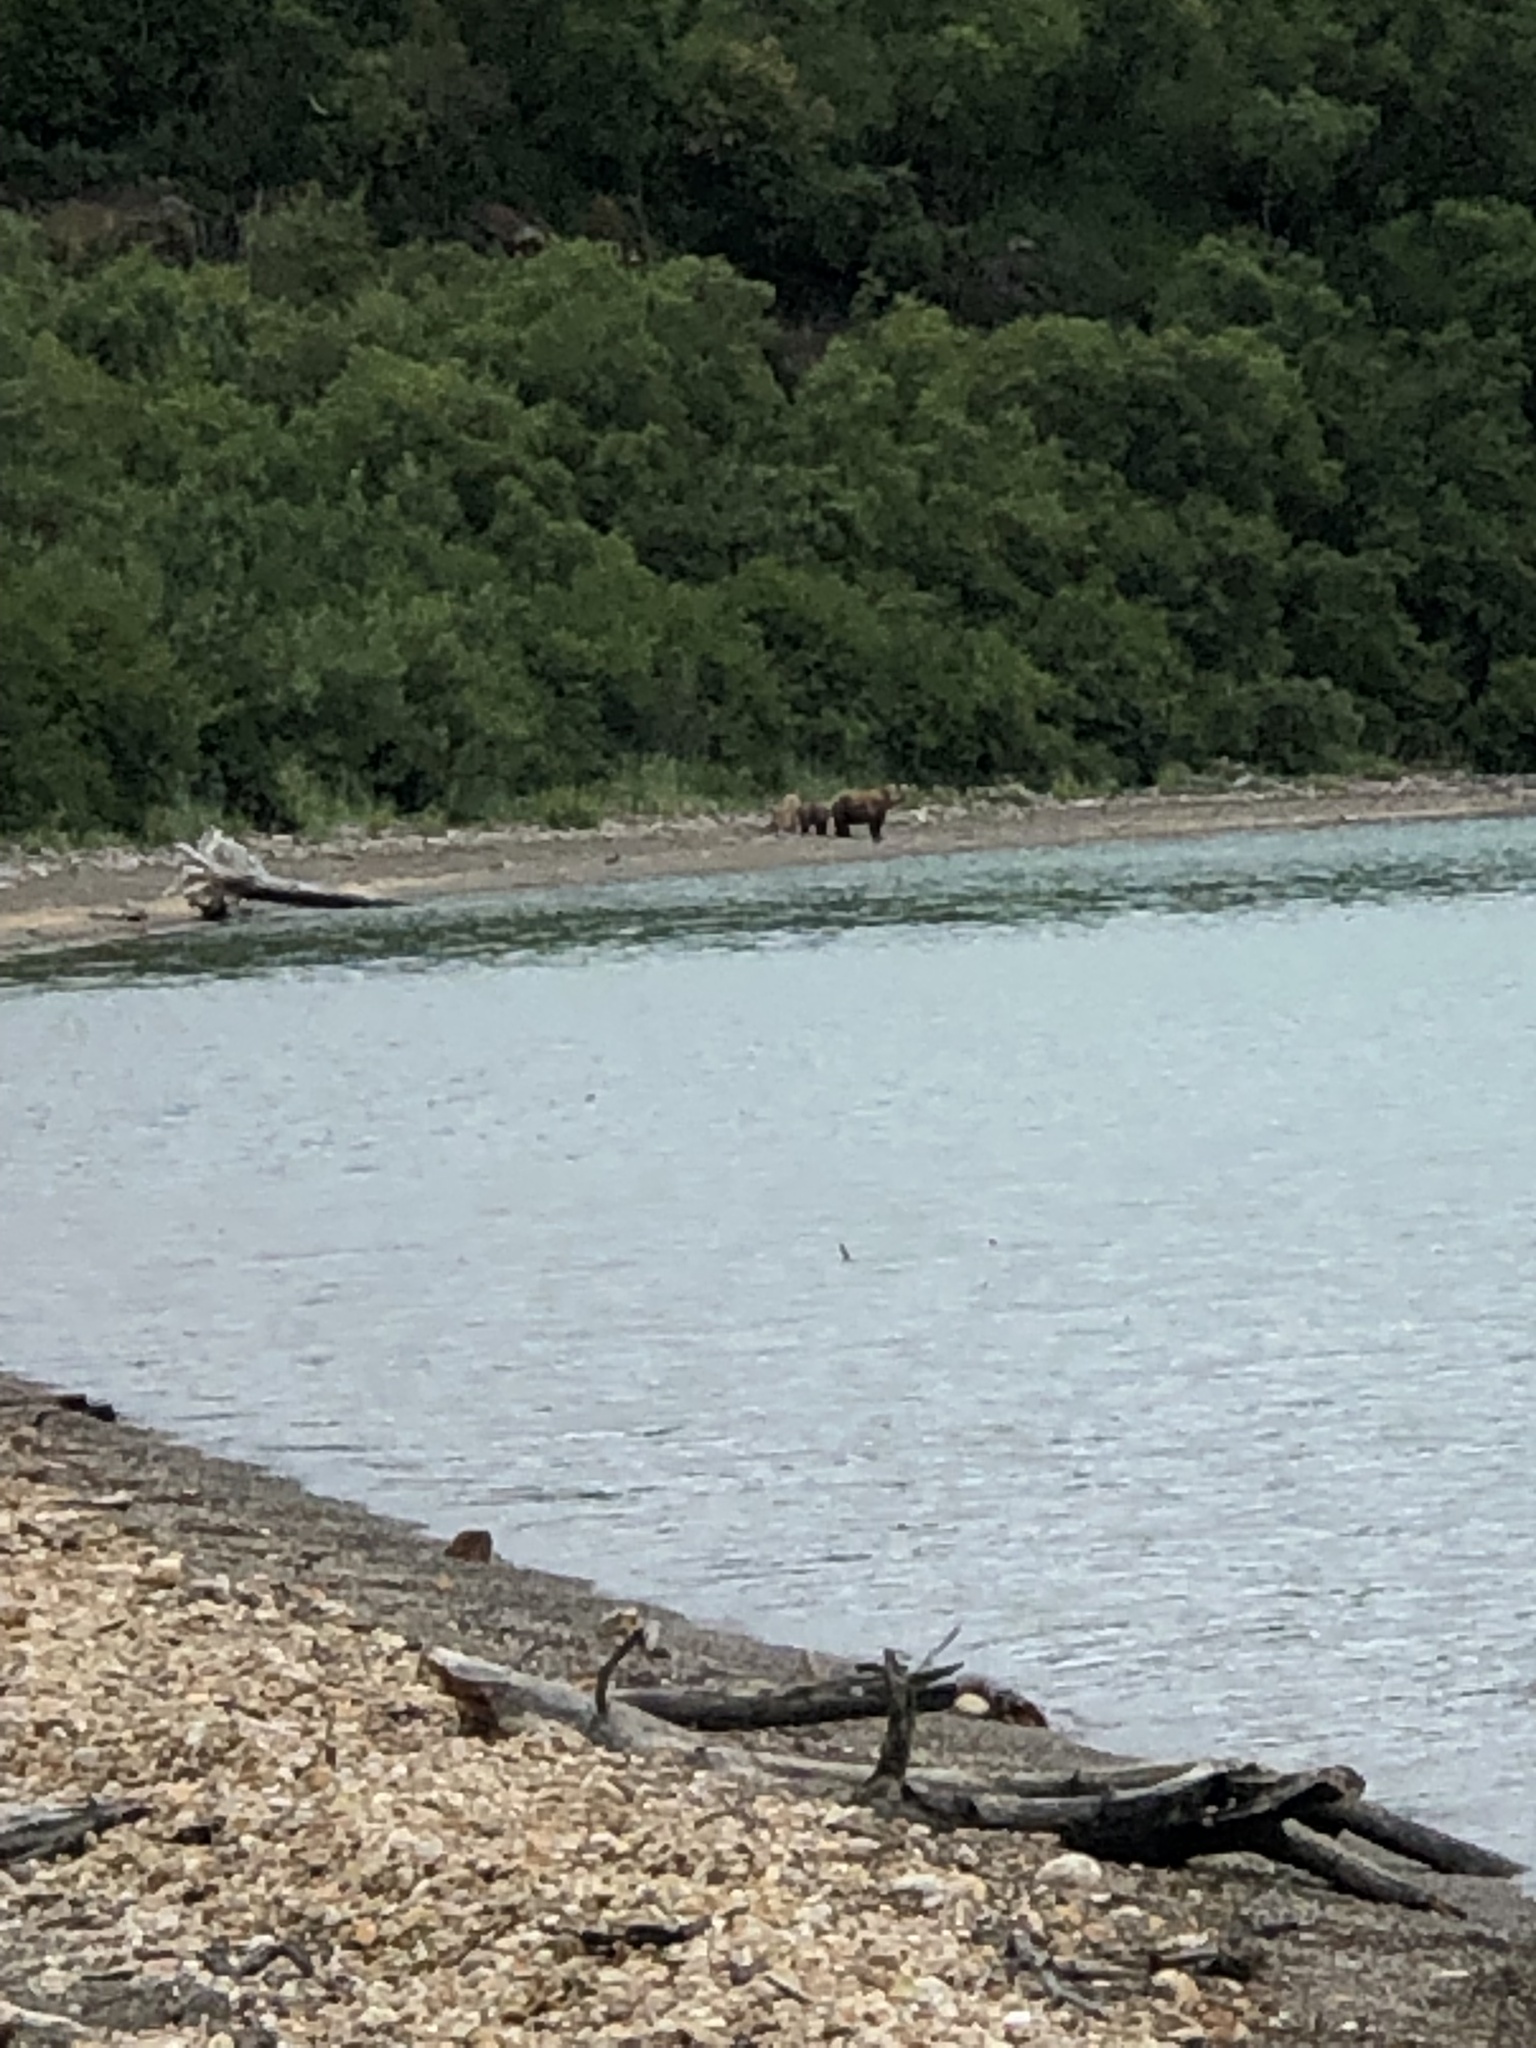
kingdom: Animalia
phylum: Chordata
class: Mammalia
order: Carnivora
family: Ursidae
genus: Ursus
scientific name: Ursus arctos
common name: Brown bear
